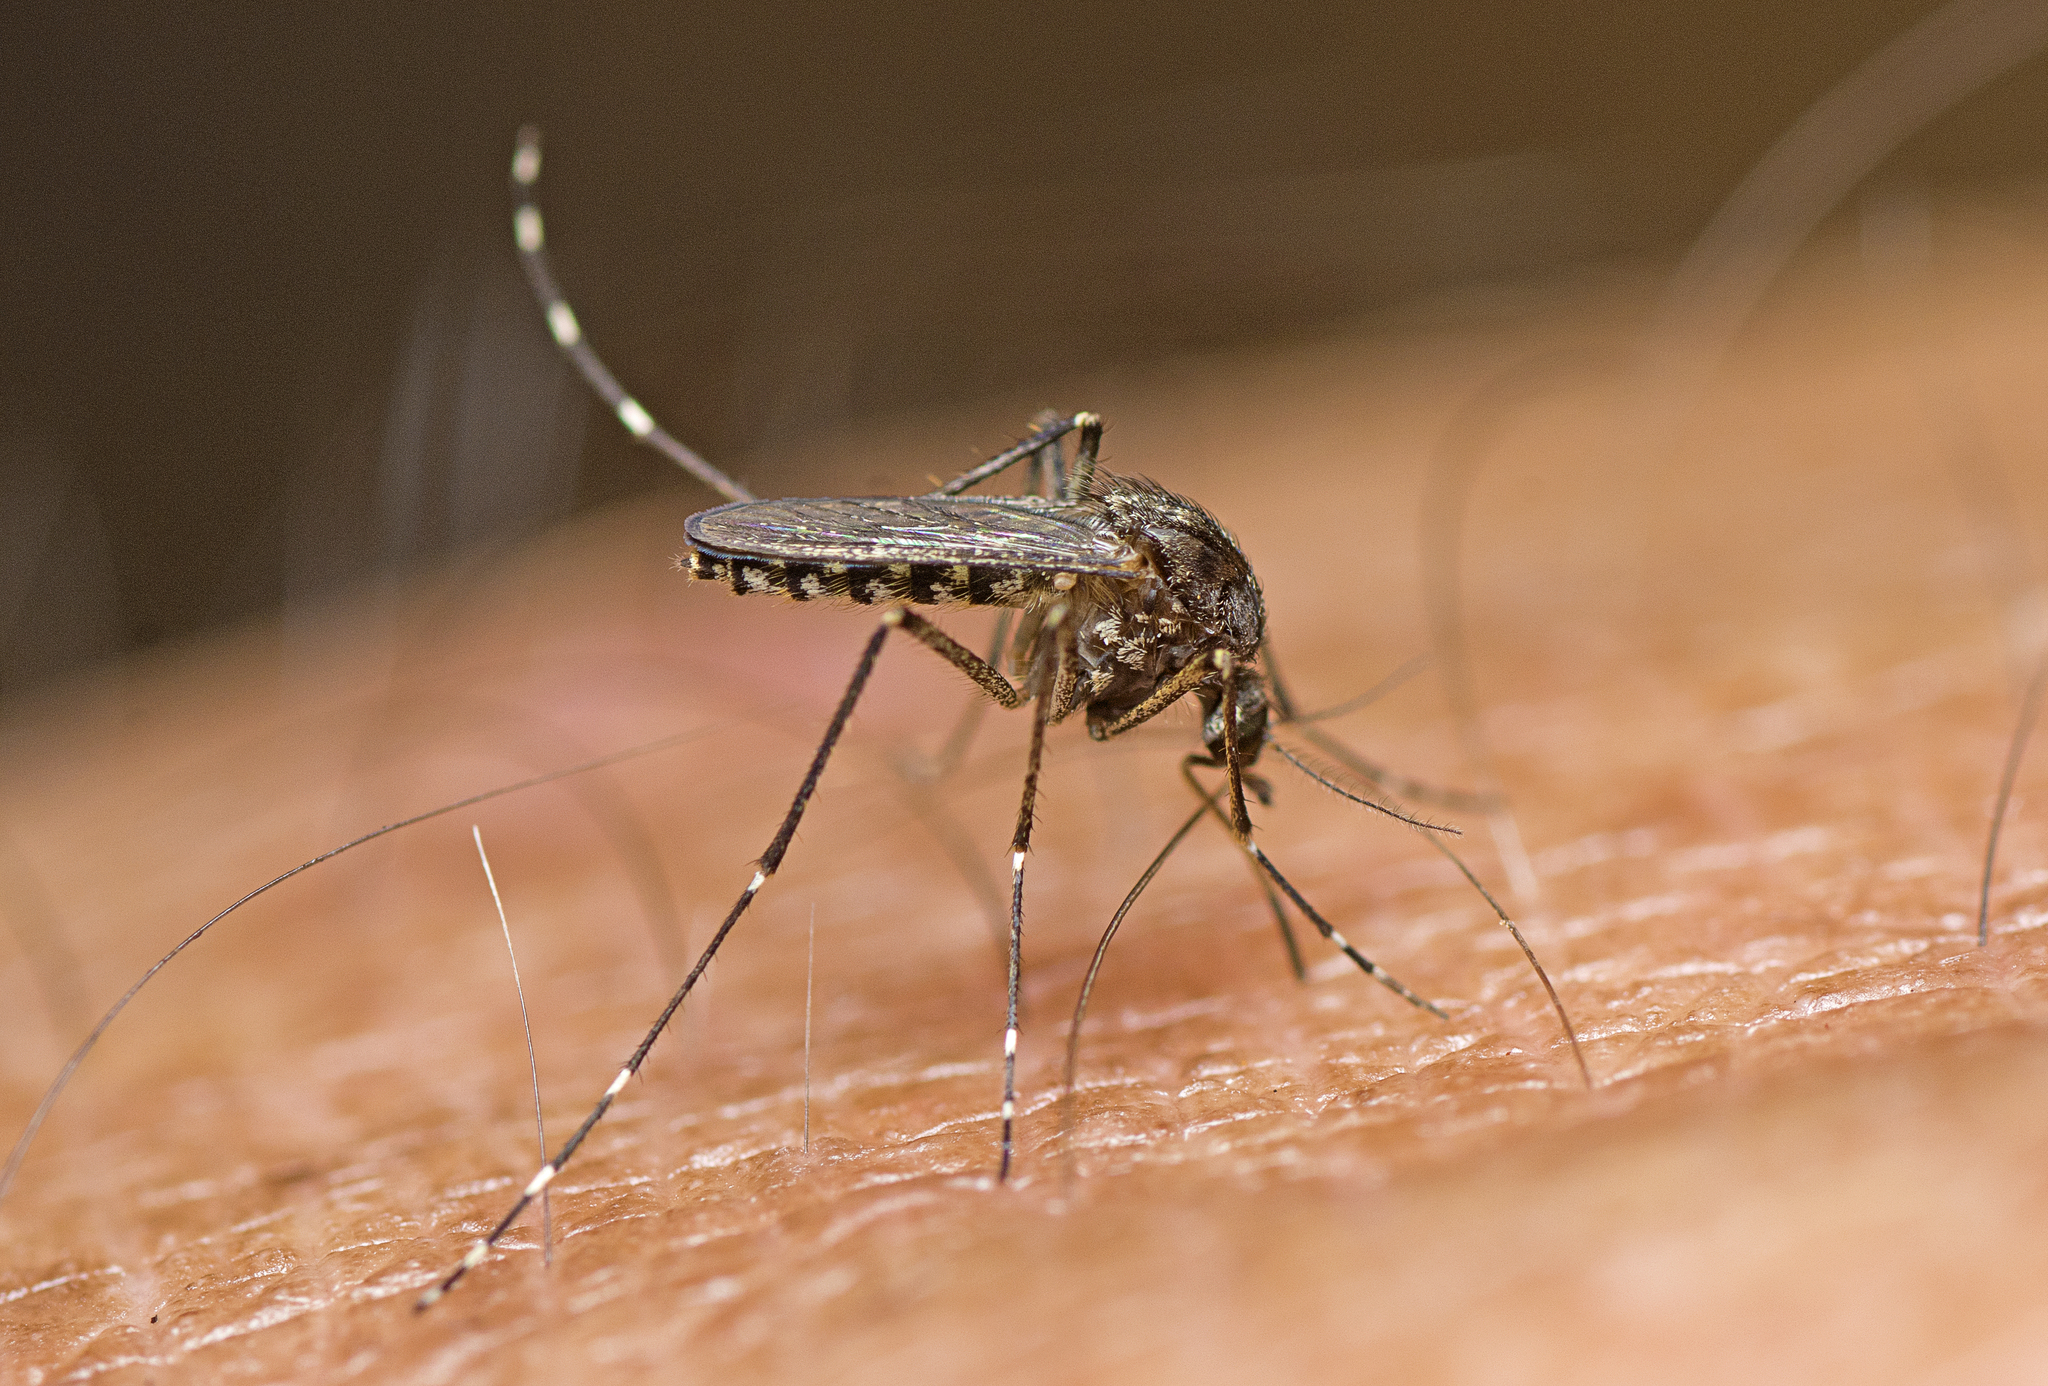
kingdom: Animalia
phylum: Arthropoda
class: Insecta
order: Diptera
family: Culicidae
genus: Aedes
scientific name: Aedes vigilax
